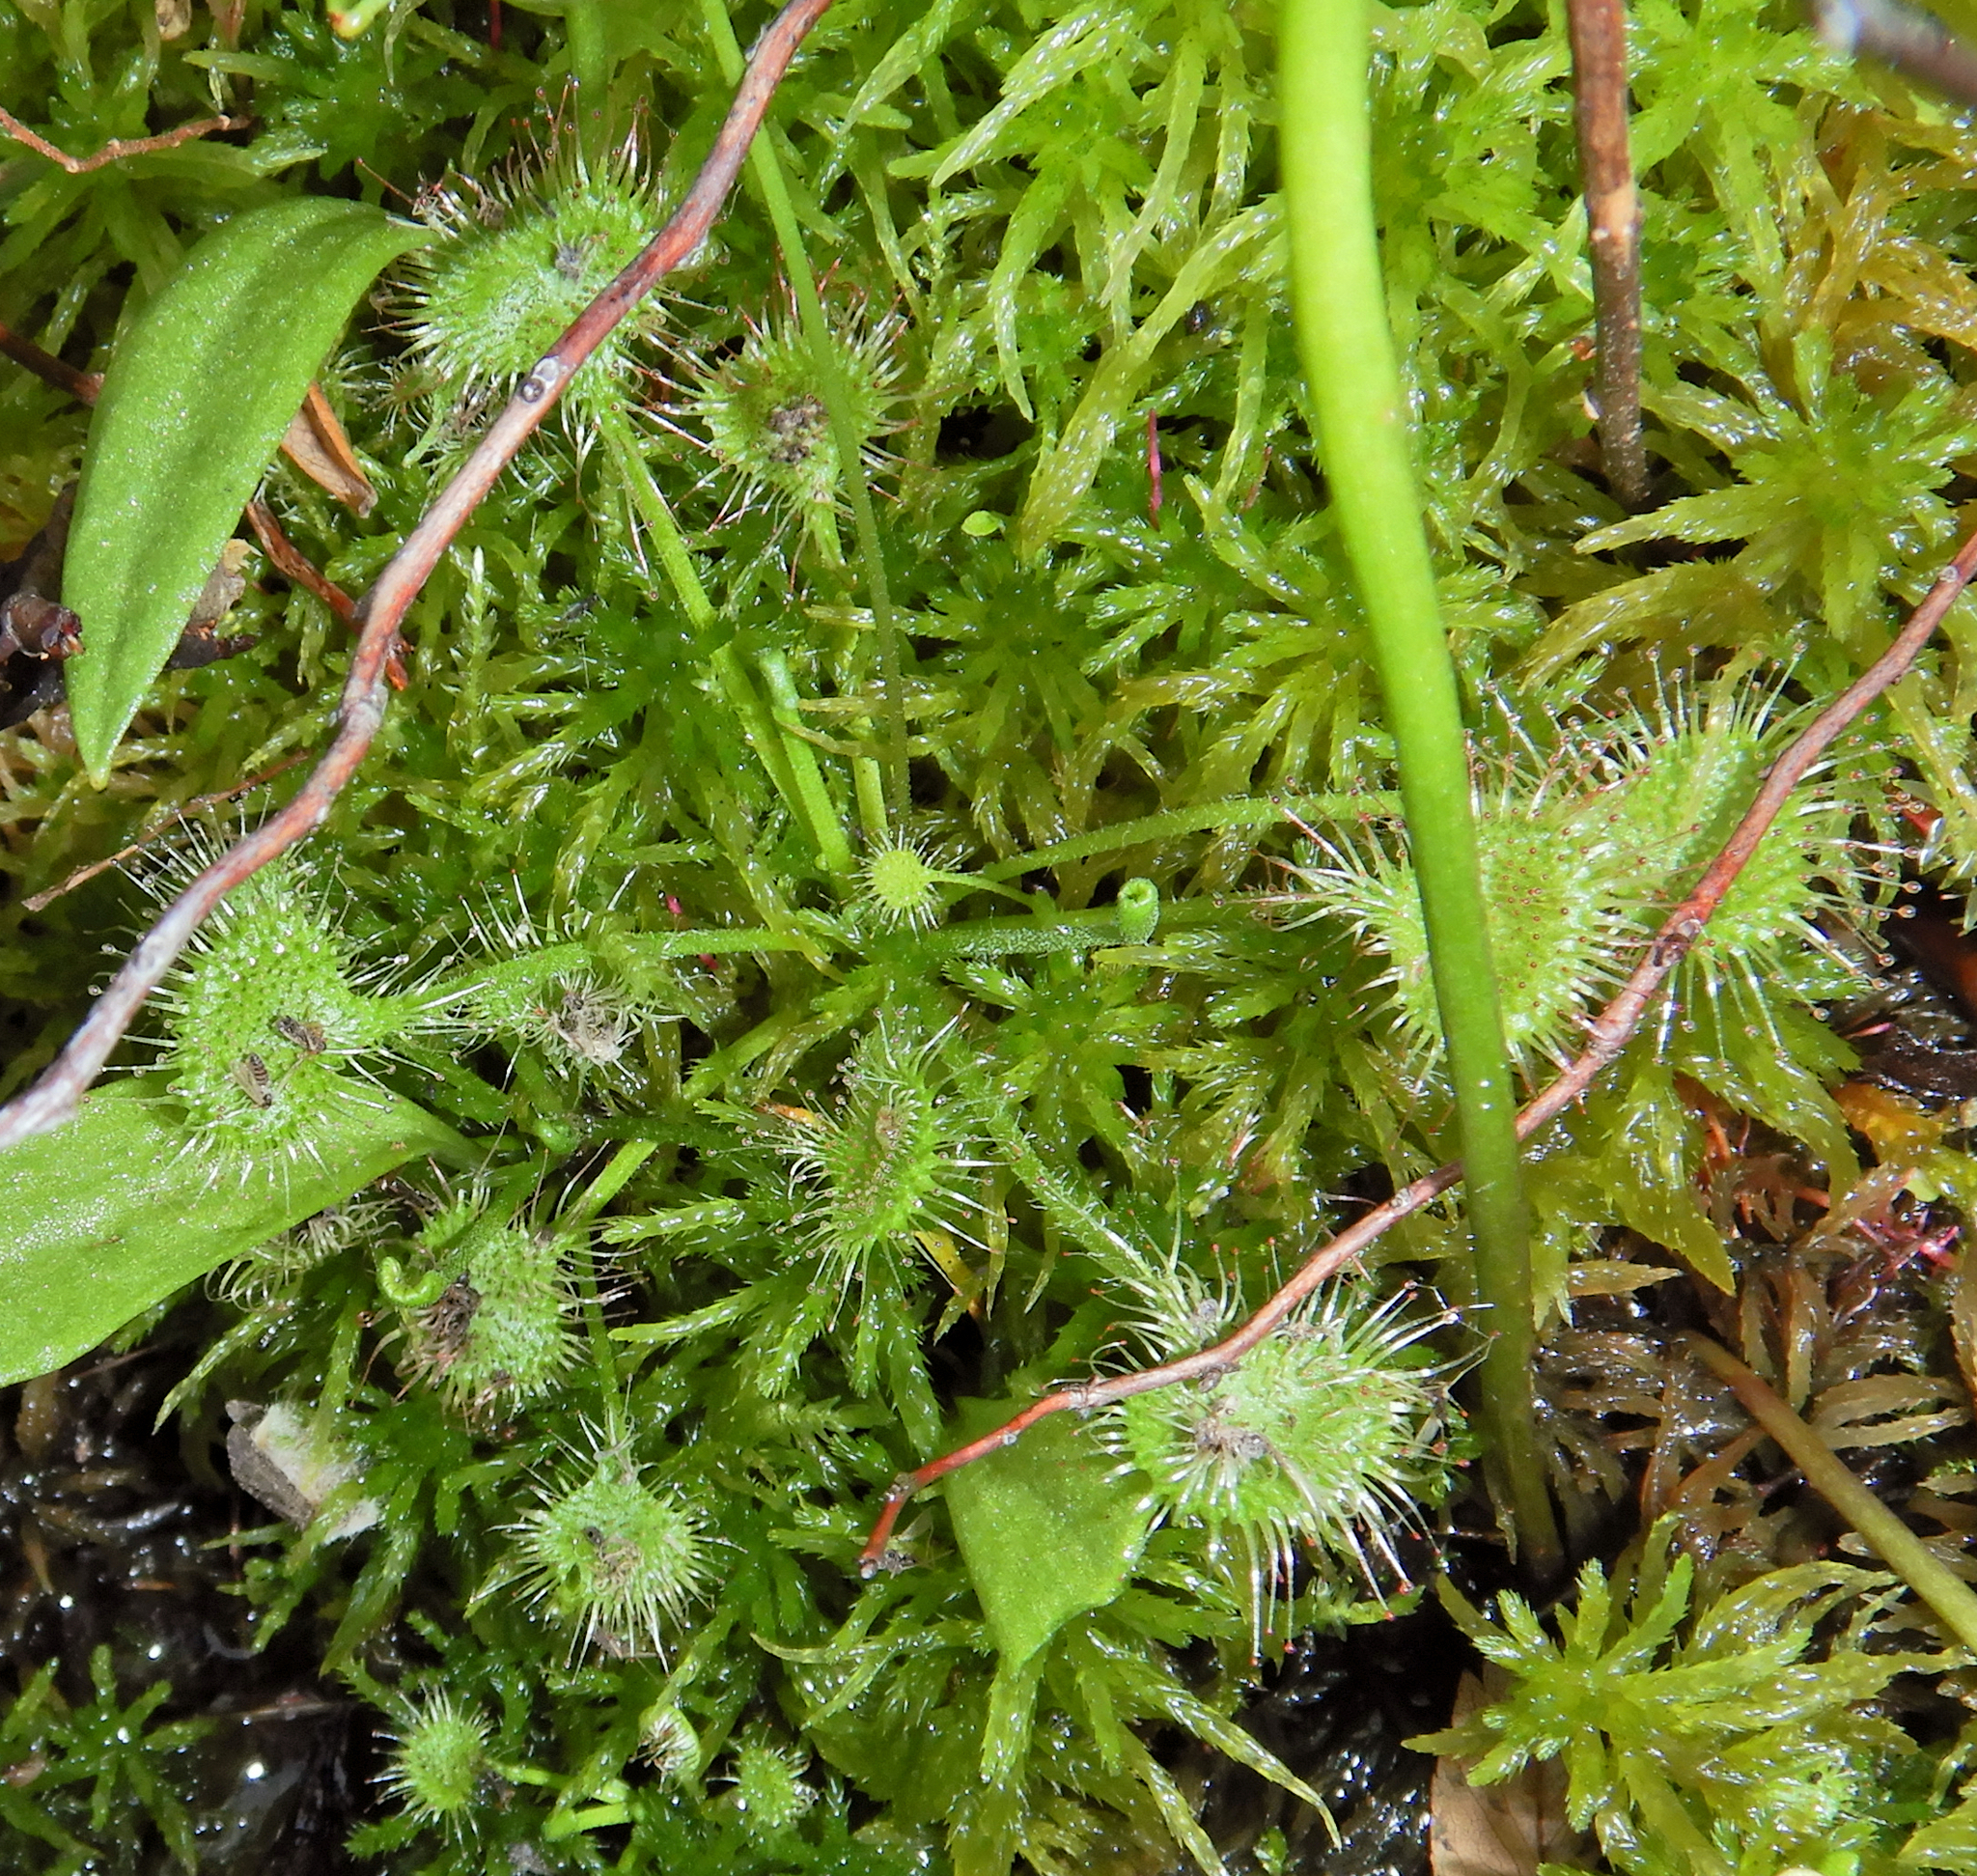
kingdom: Plantae
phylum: Tracheophyta
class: Magnoliopsida
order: Caryophyllales
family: Droseraceae
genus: Drosera
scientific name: Drosera rotundifolia
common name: Round-leaved sundew
